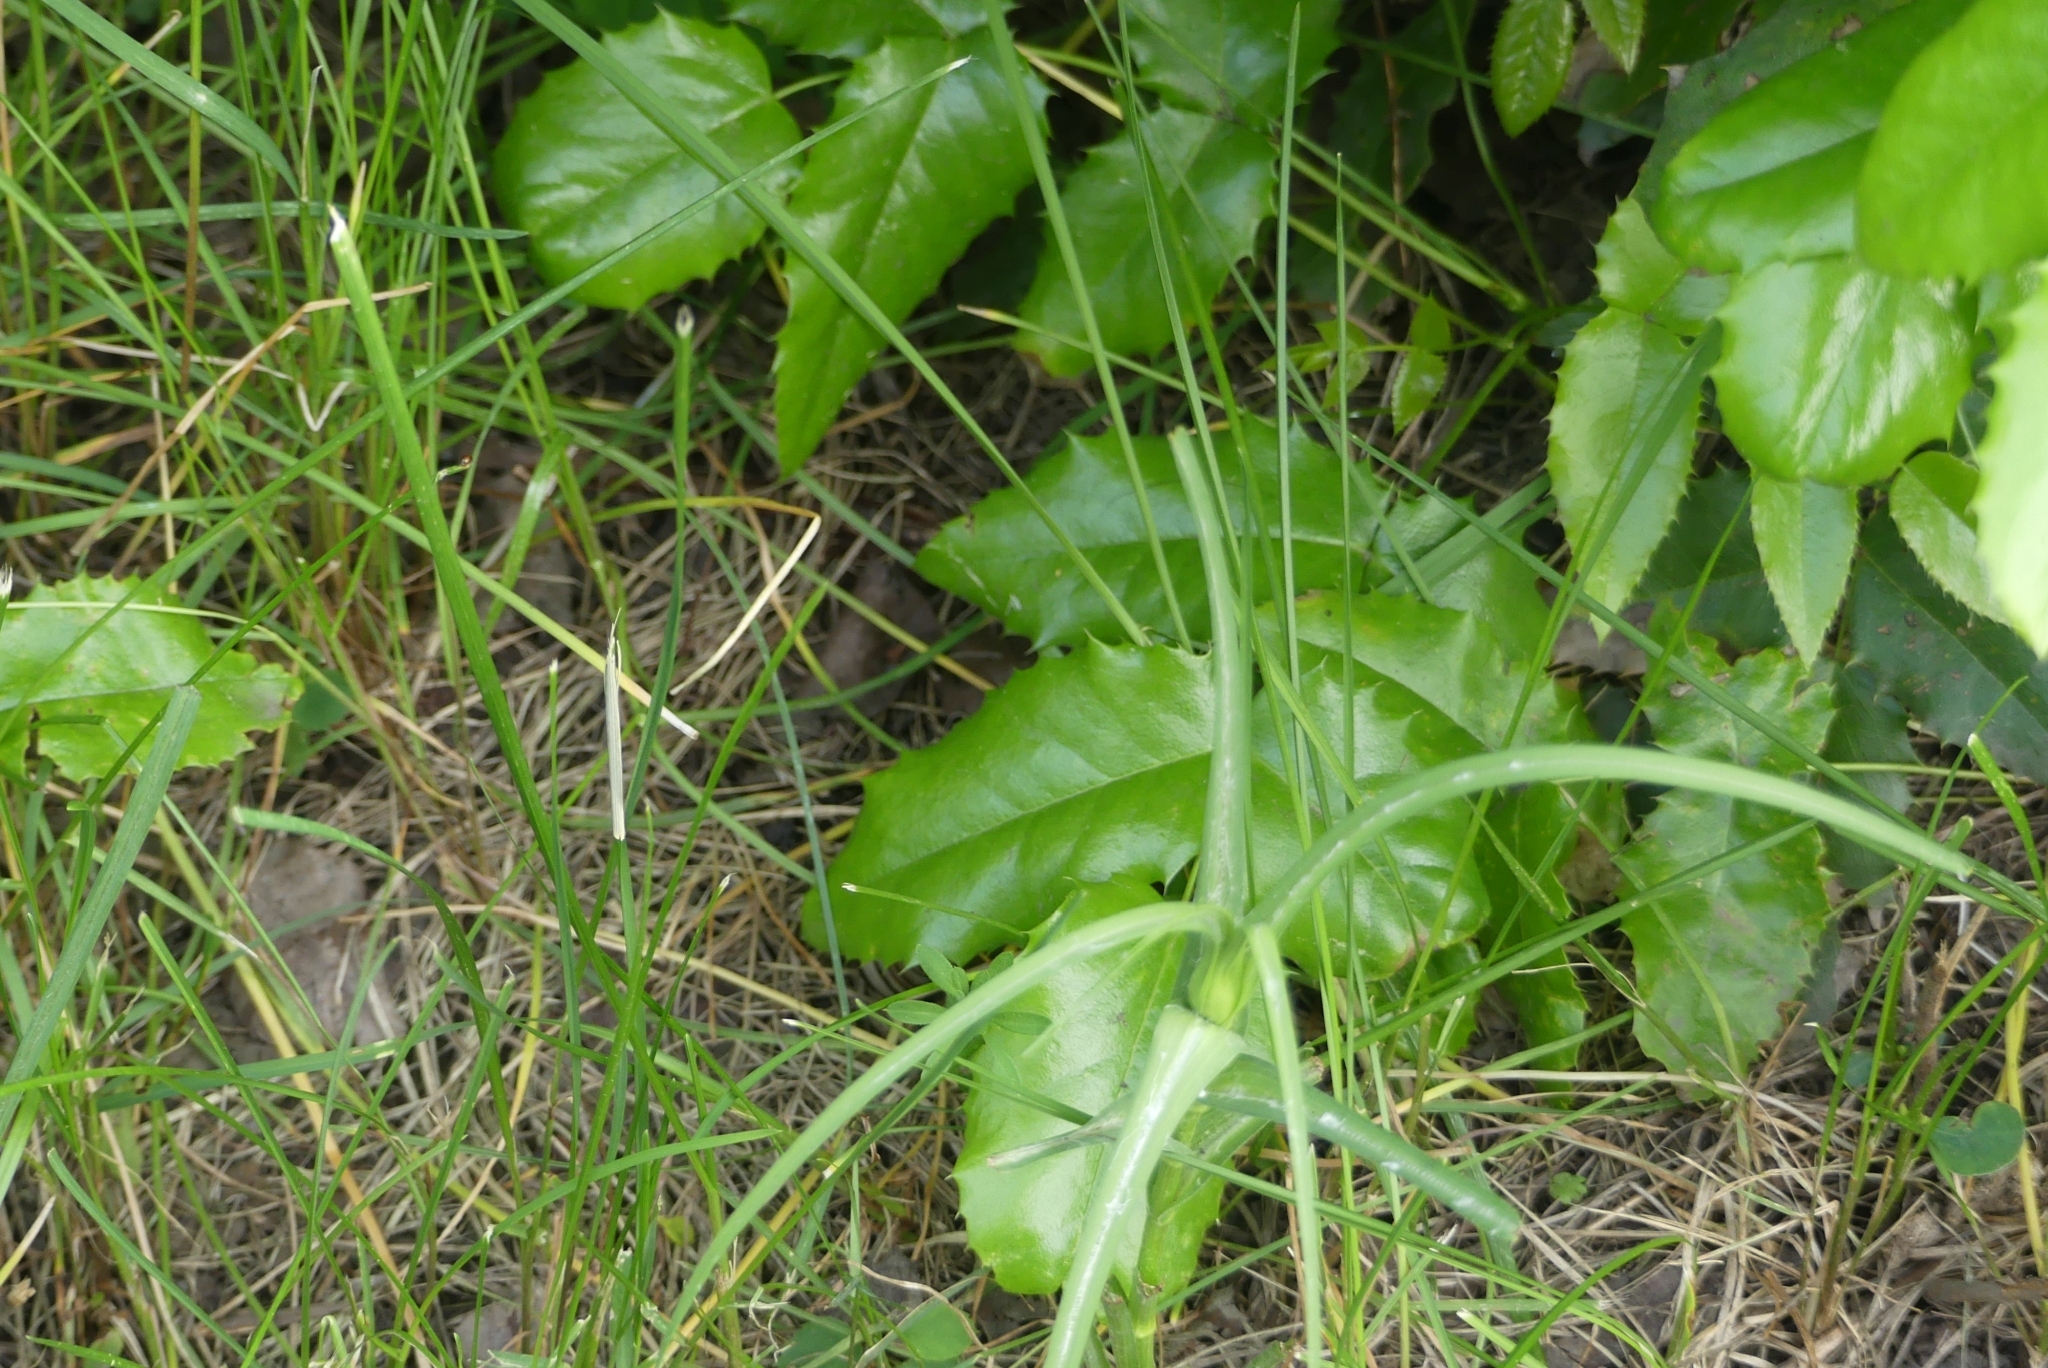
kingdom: Plantae
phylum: Tracheophyta
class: Magnoliopsida
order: Ranunculales
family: Berberidaceae
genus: Mahonia
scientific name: Mahonia aquifolium
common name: Oregon-grape
